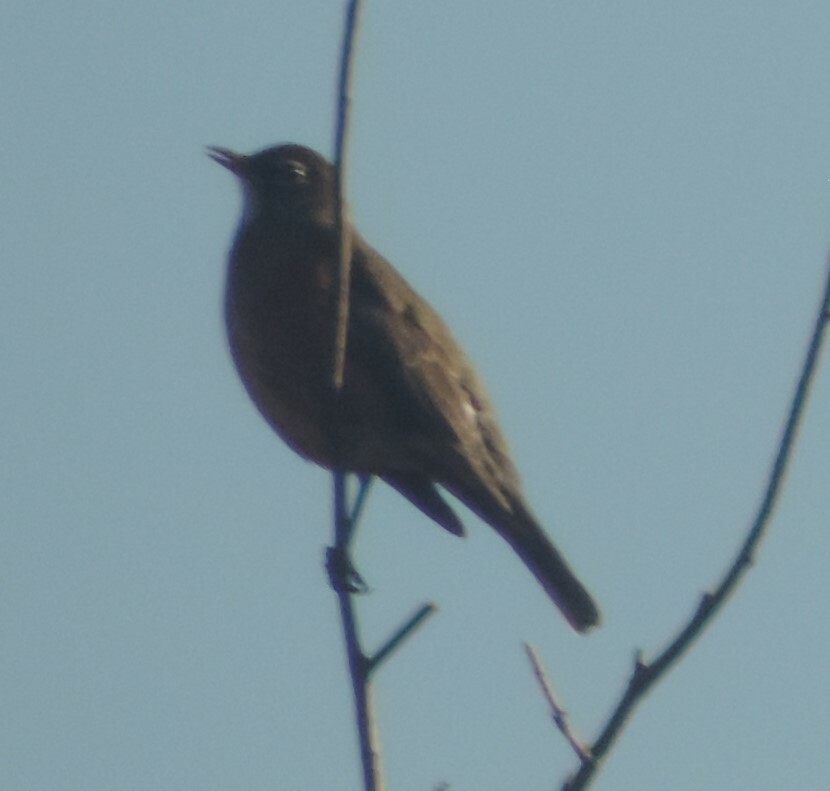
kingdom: Animalia
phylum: Chordata
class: Aves
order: Passeriformes
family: Turdidae
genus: Turdus
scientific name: Turdus migratorius
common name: American robin
